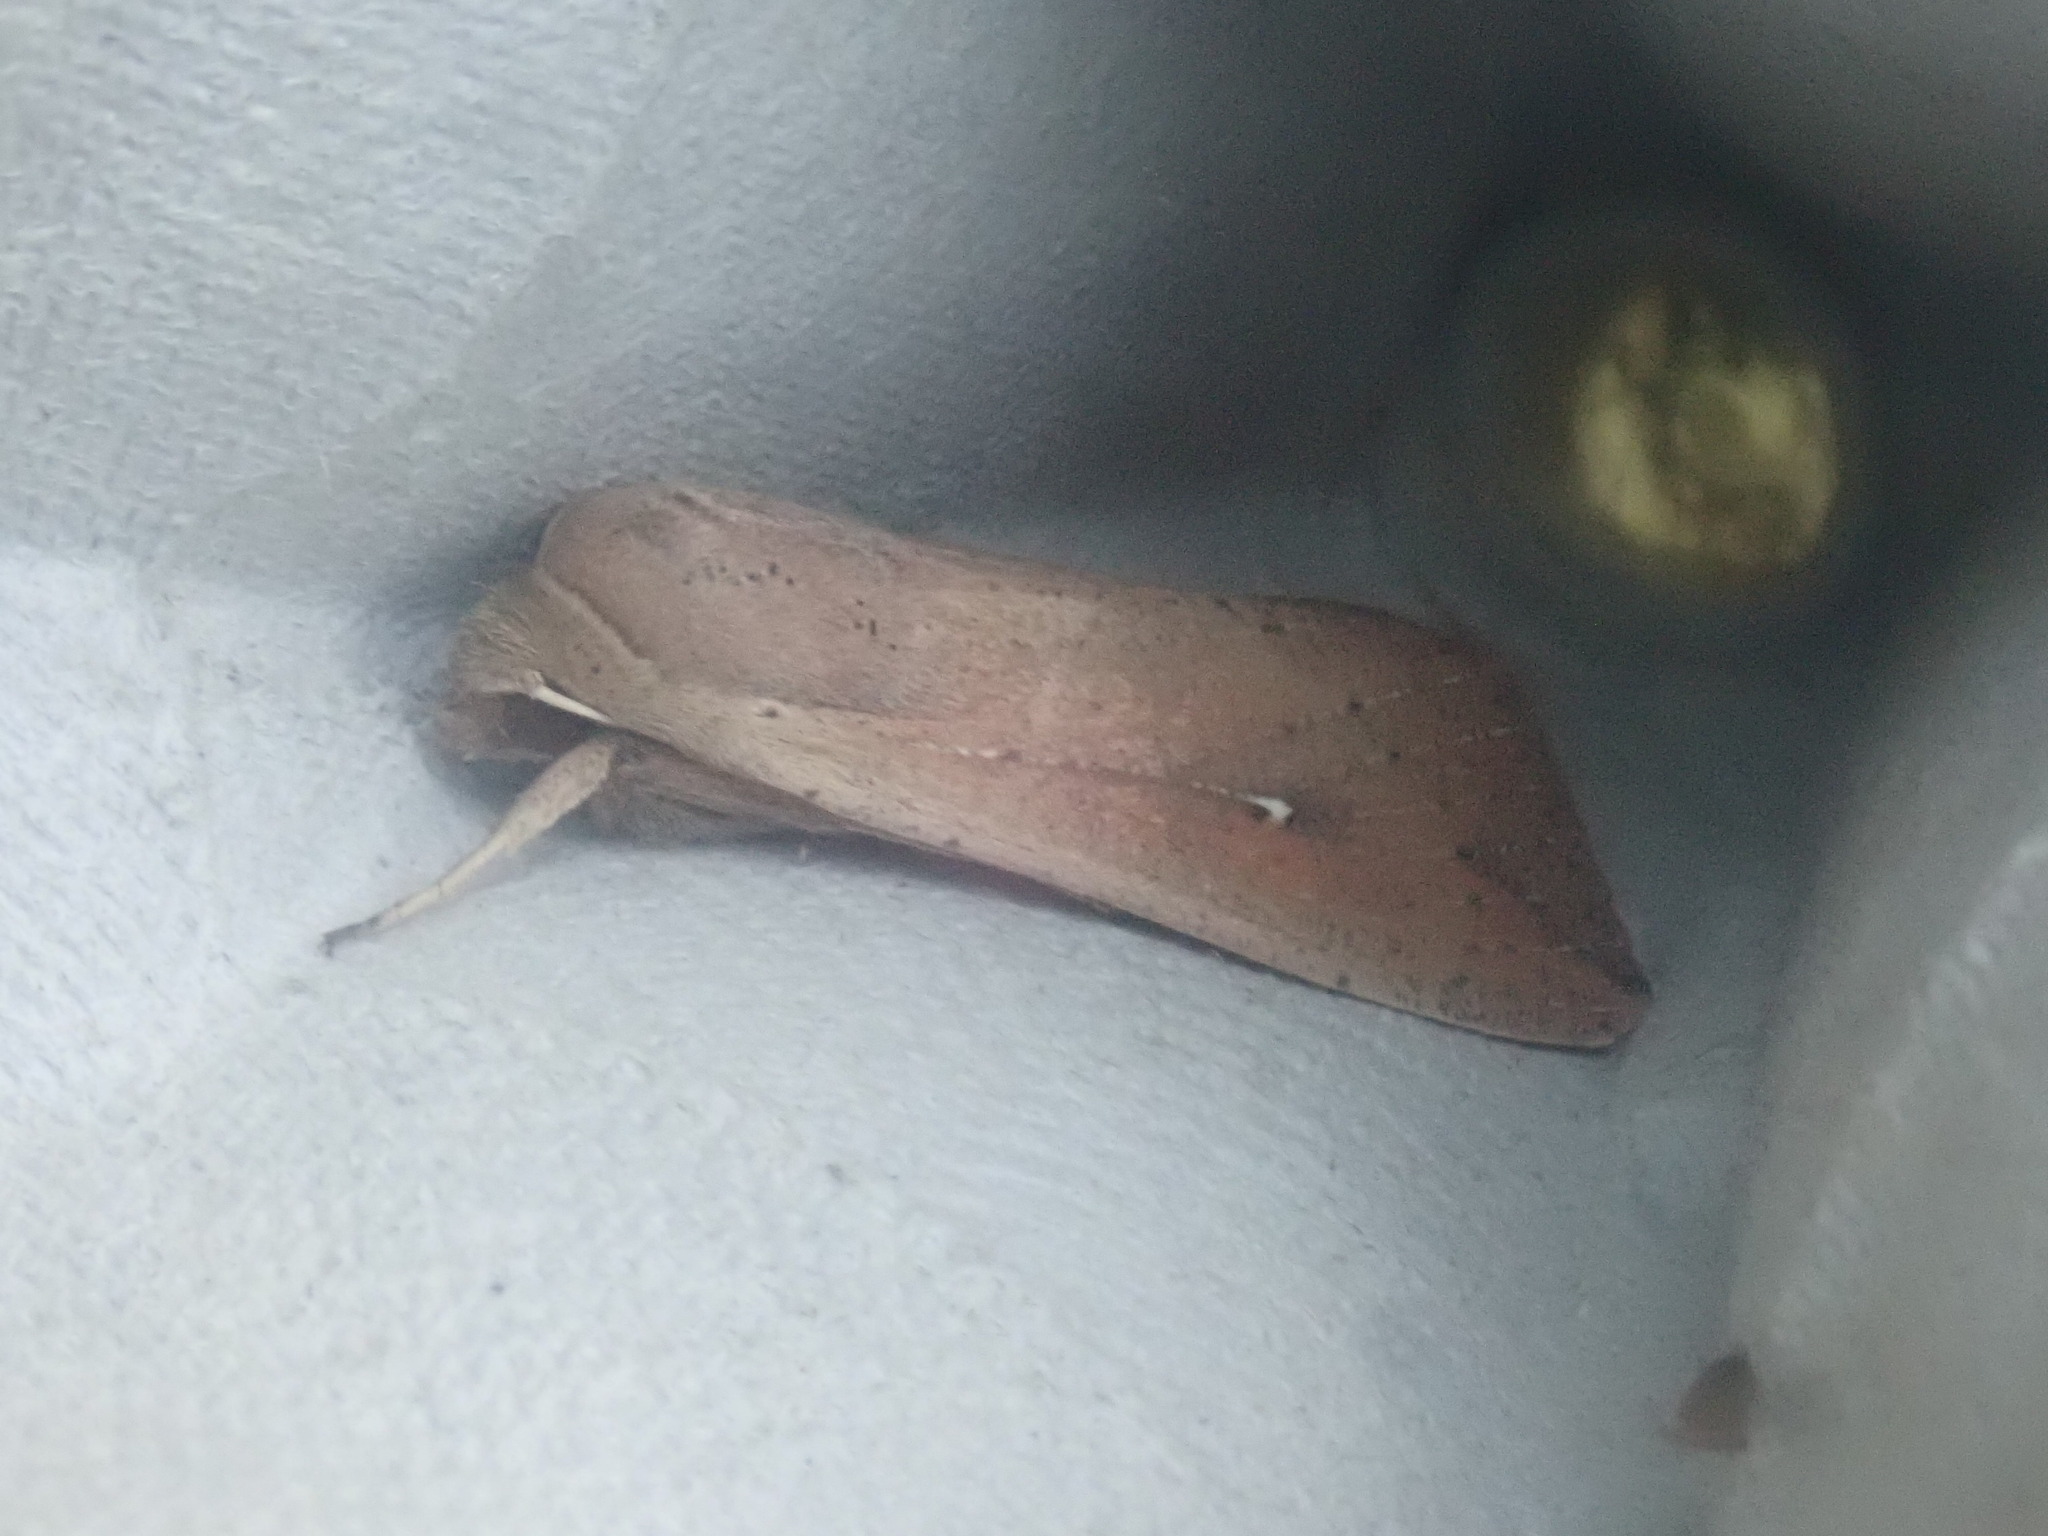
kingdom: Animalia
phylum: Arthropoda
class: Insecta
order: Lepidoptera
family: Noctuidae
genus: Mythimna
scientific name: Mythimna unipuncta
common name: White-speck
